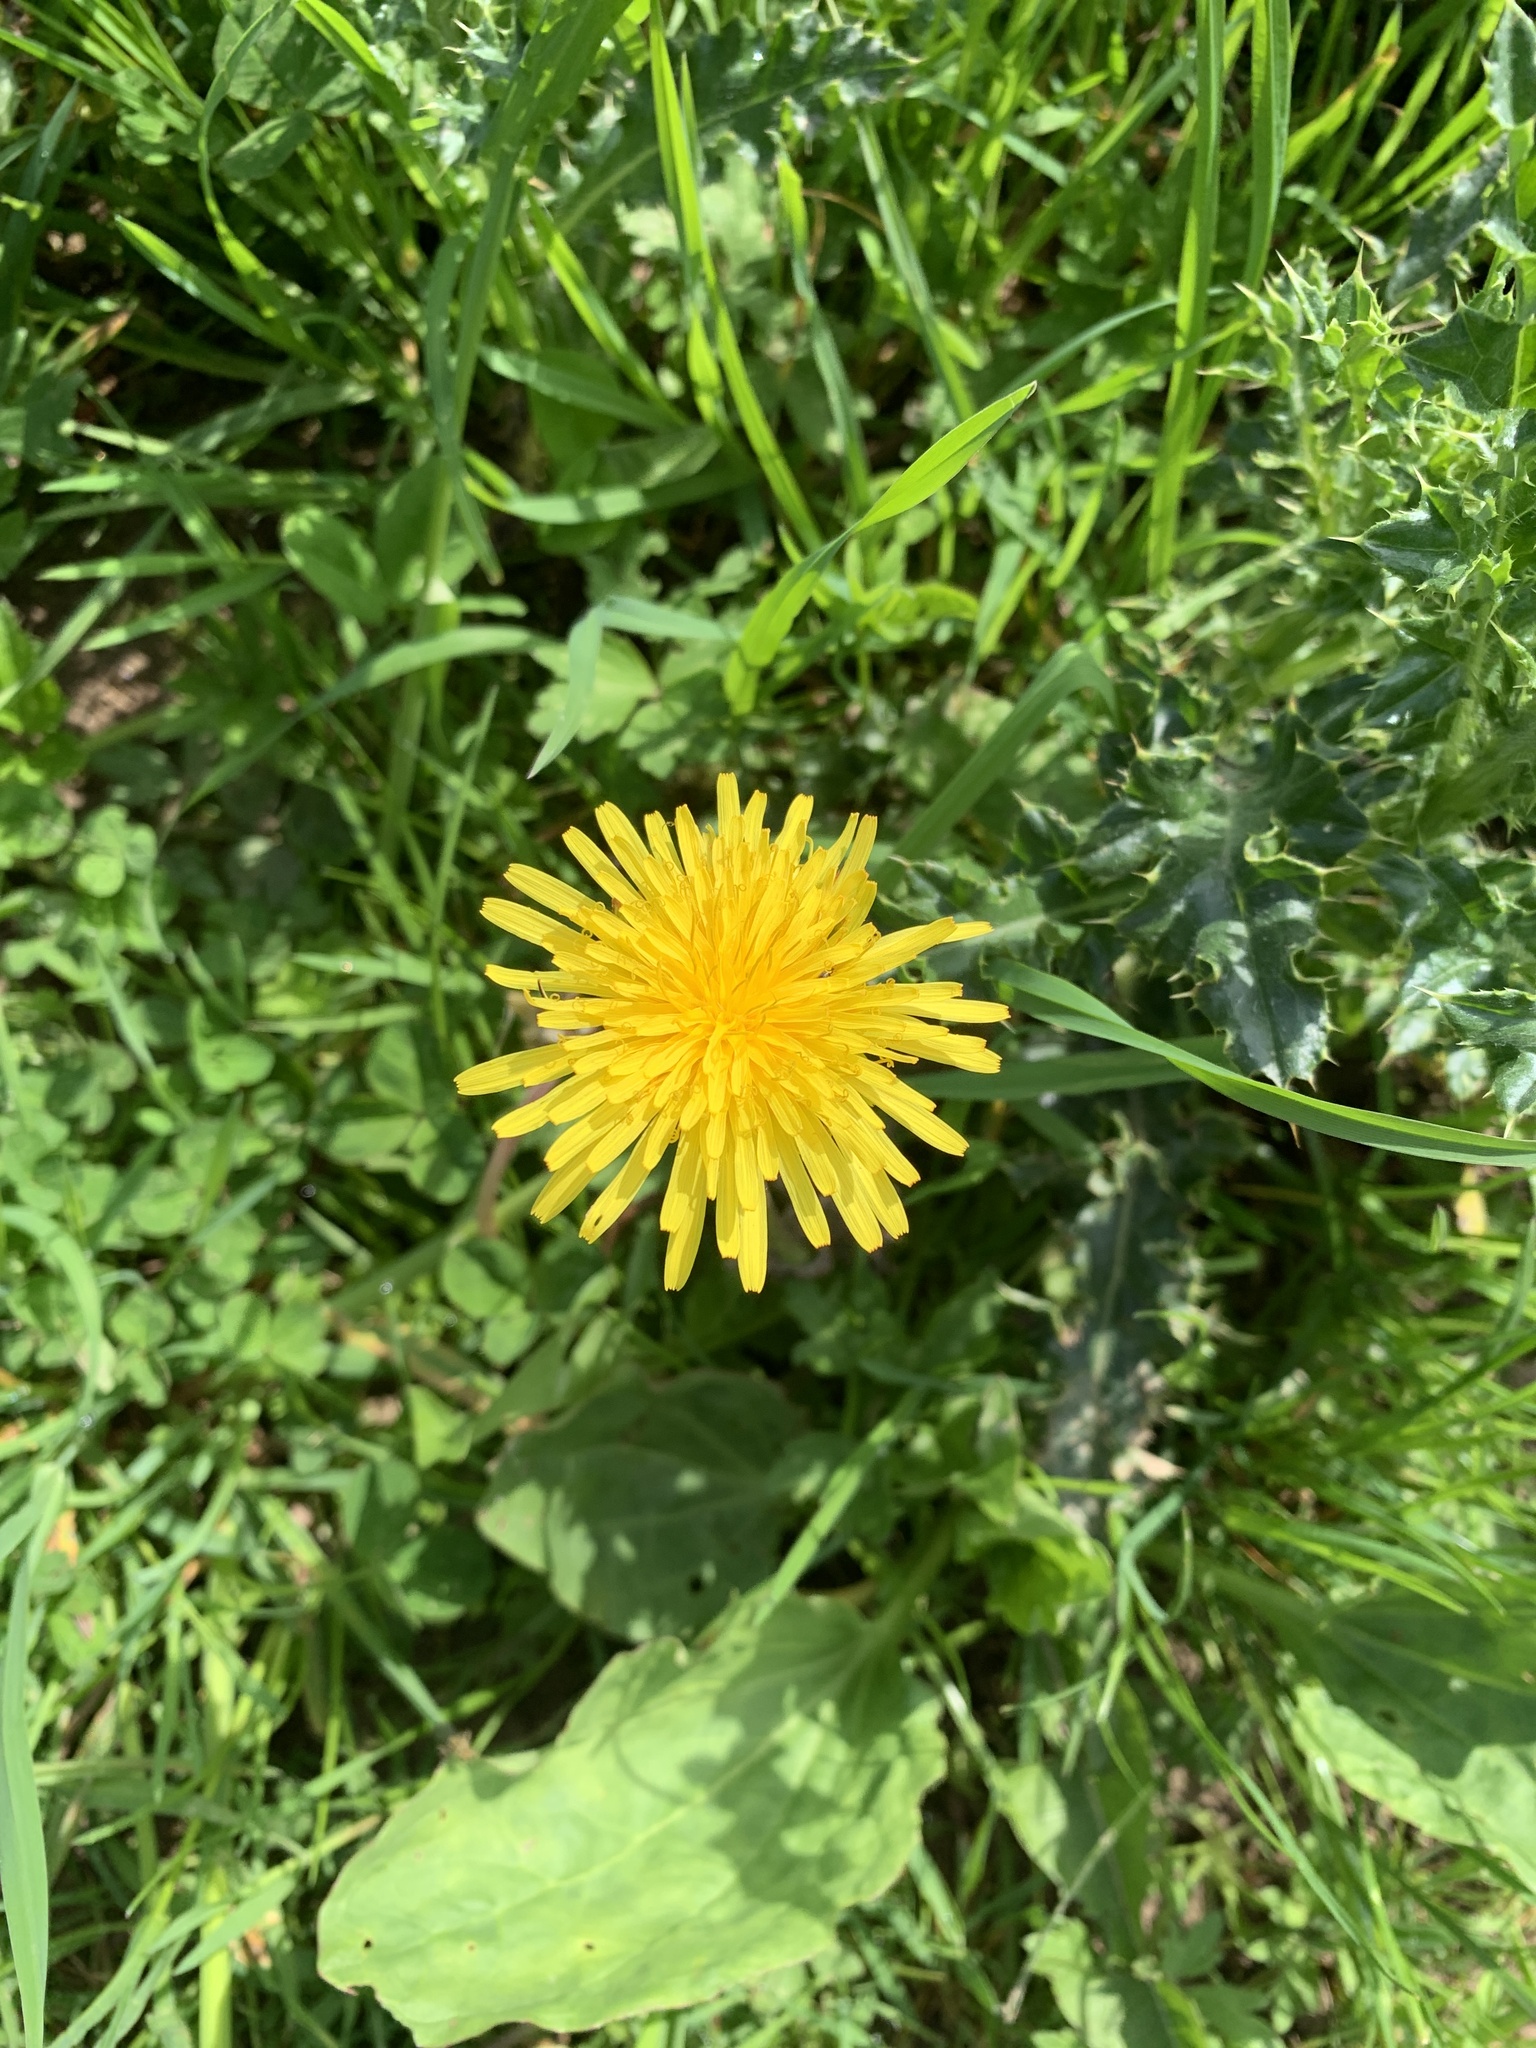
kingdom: Plantae
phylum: Tracheophyta
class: Magnoliopsida
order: Asterales
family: Asteraceae
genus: Taraxacum
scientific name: Taraxacum officinale
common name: Common dandelion
